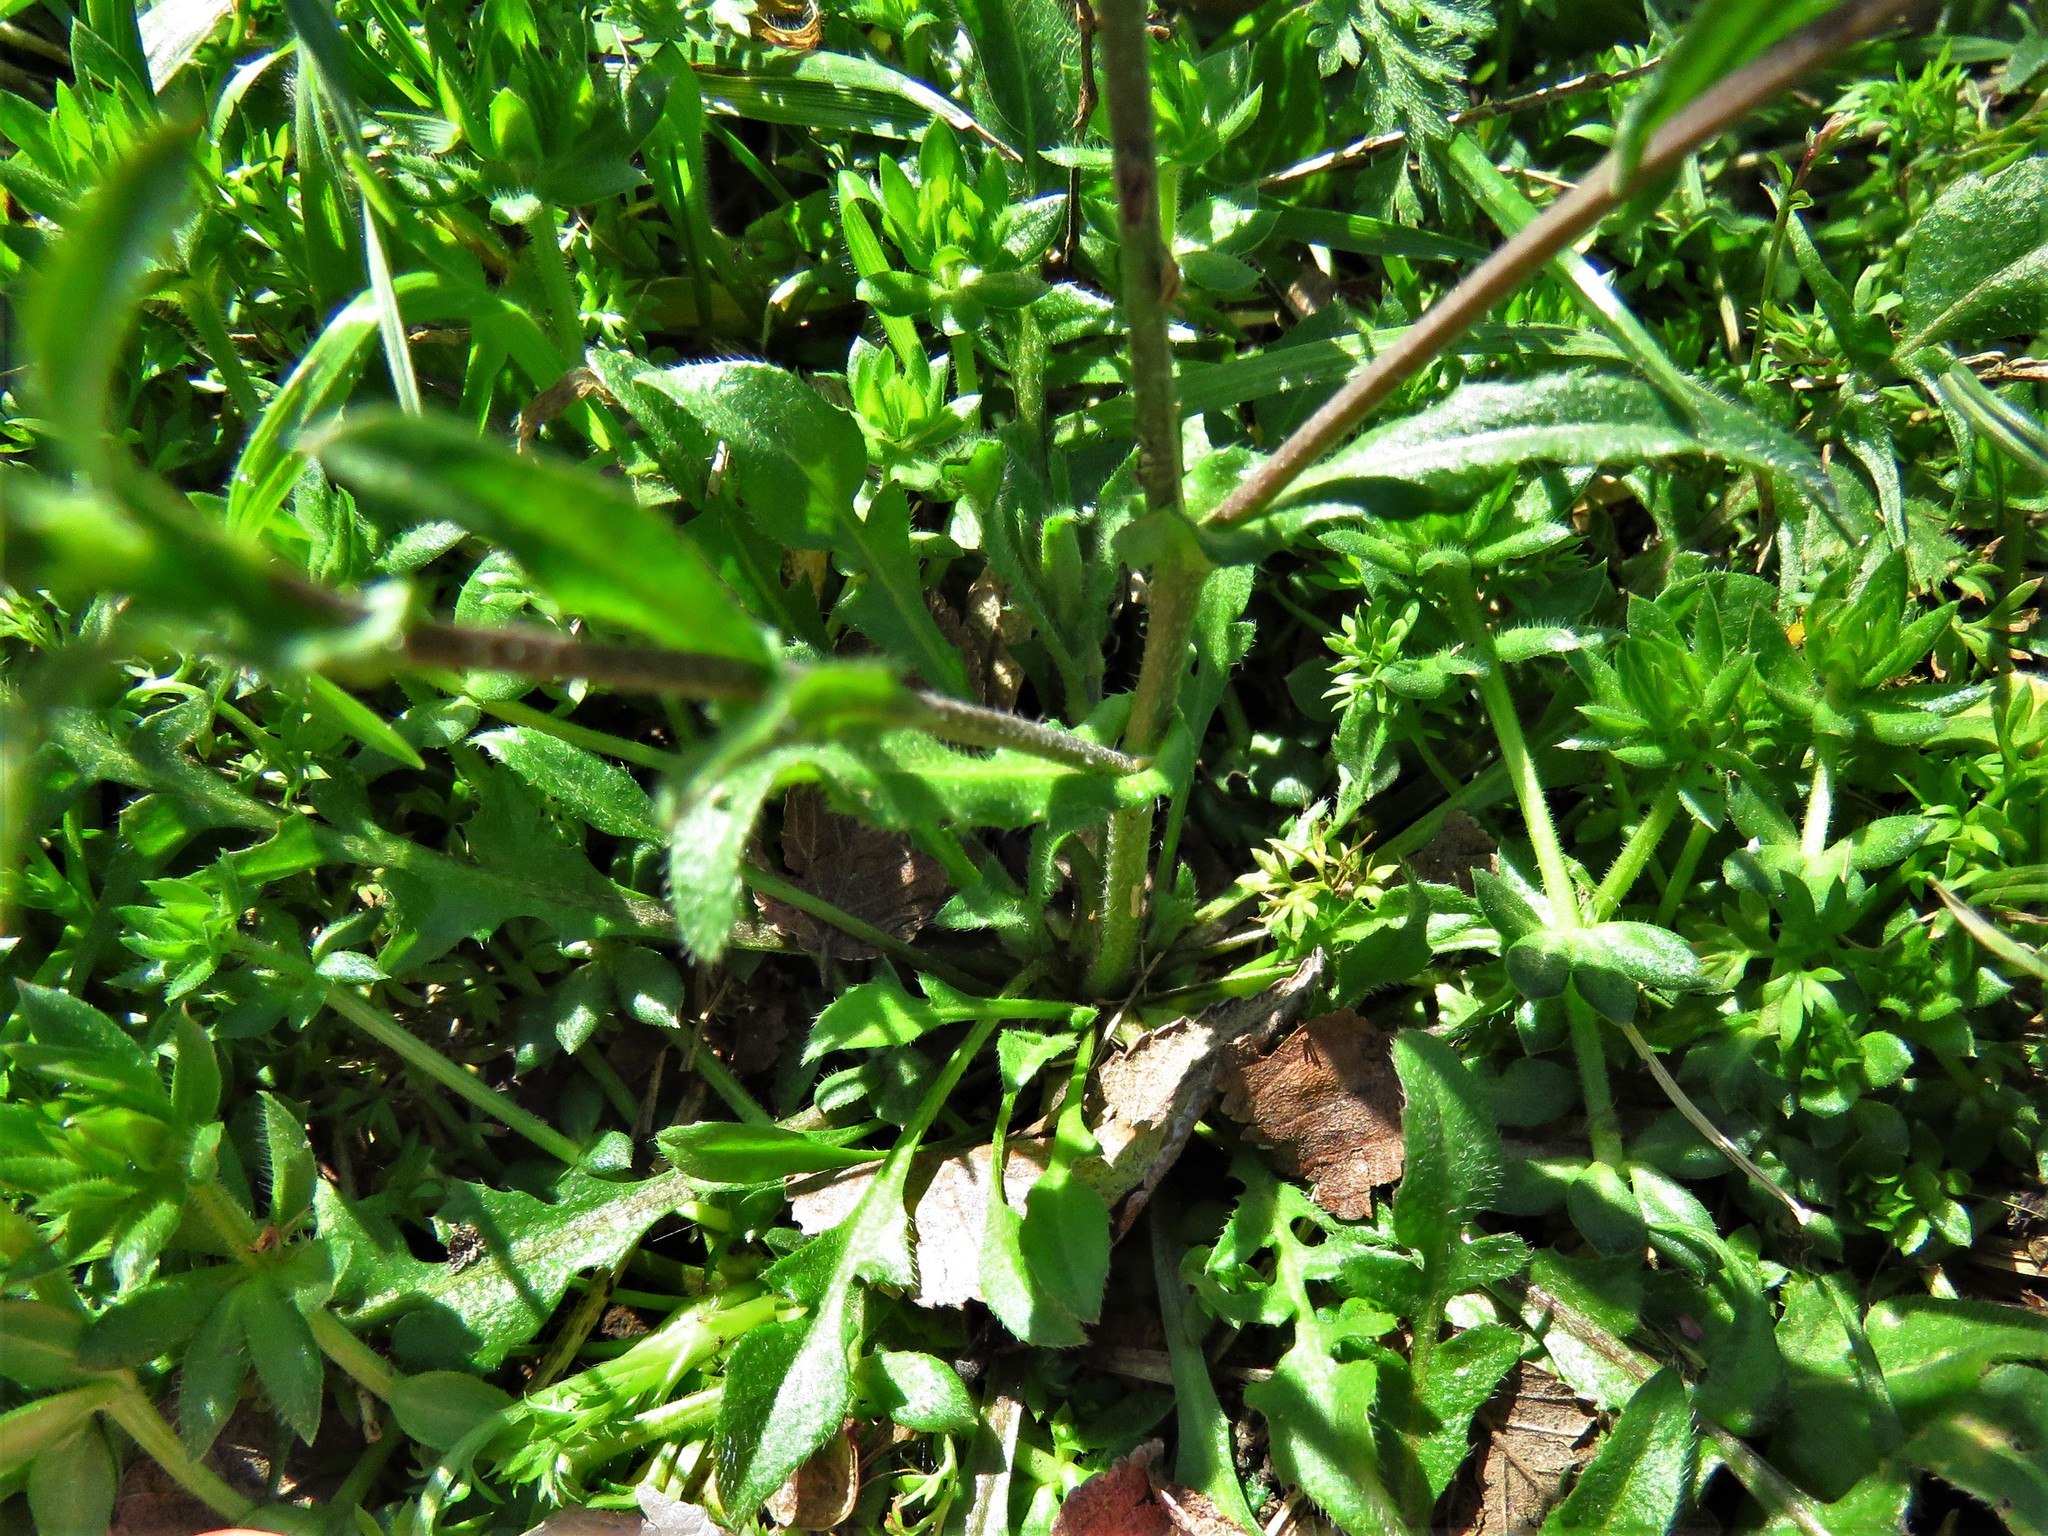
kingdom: Plantae
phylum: Tracheophyta
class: Magnoliopsida
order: Brassicales
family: Brassicaceae
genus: Capsella
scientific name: Capsella bursa-pastoris
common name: Shepherd's purse
